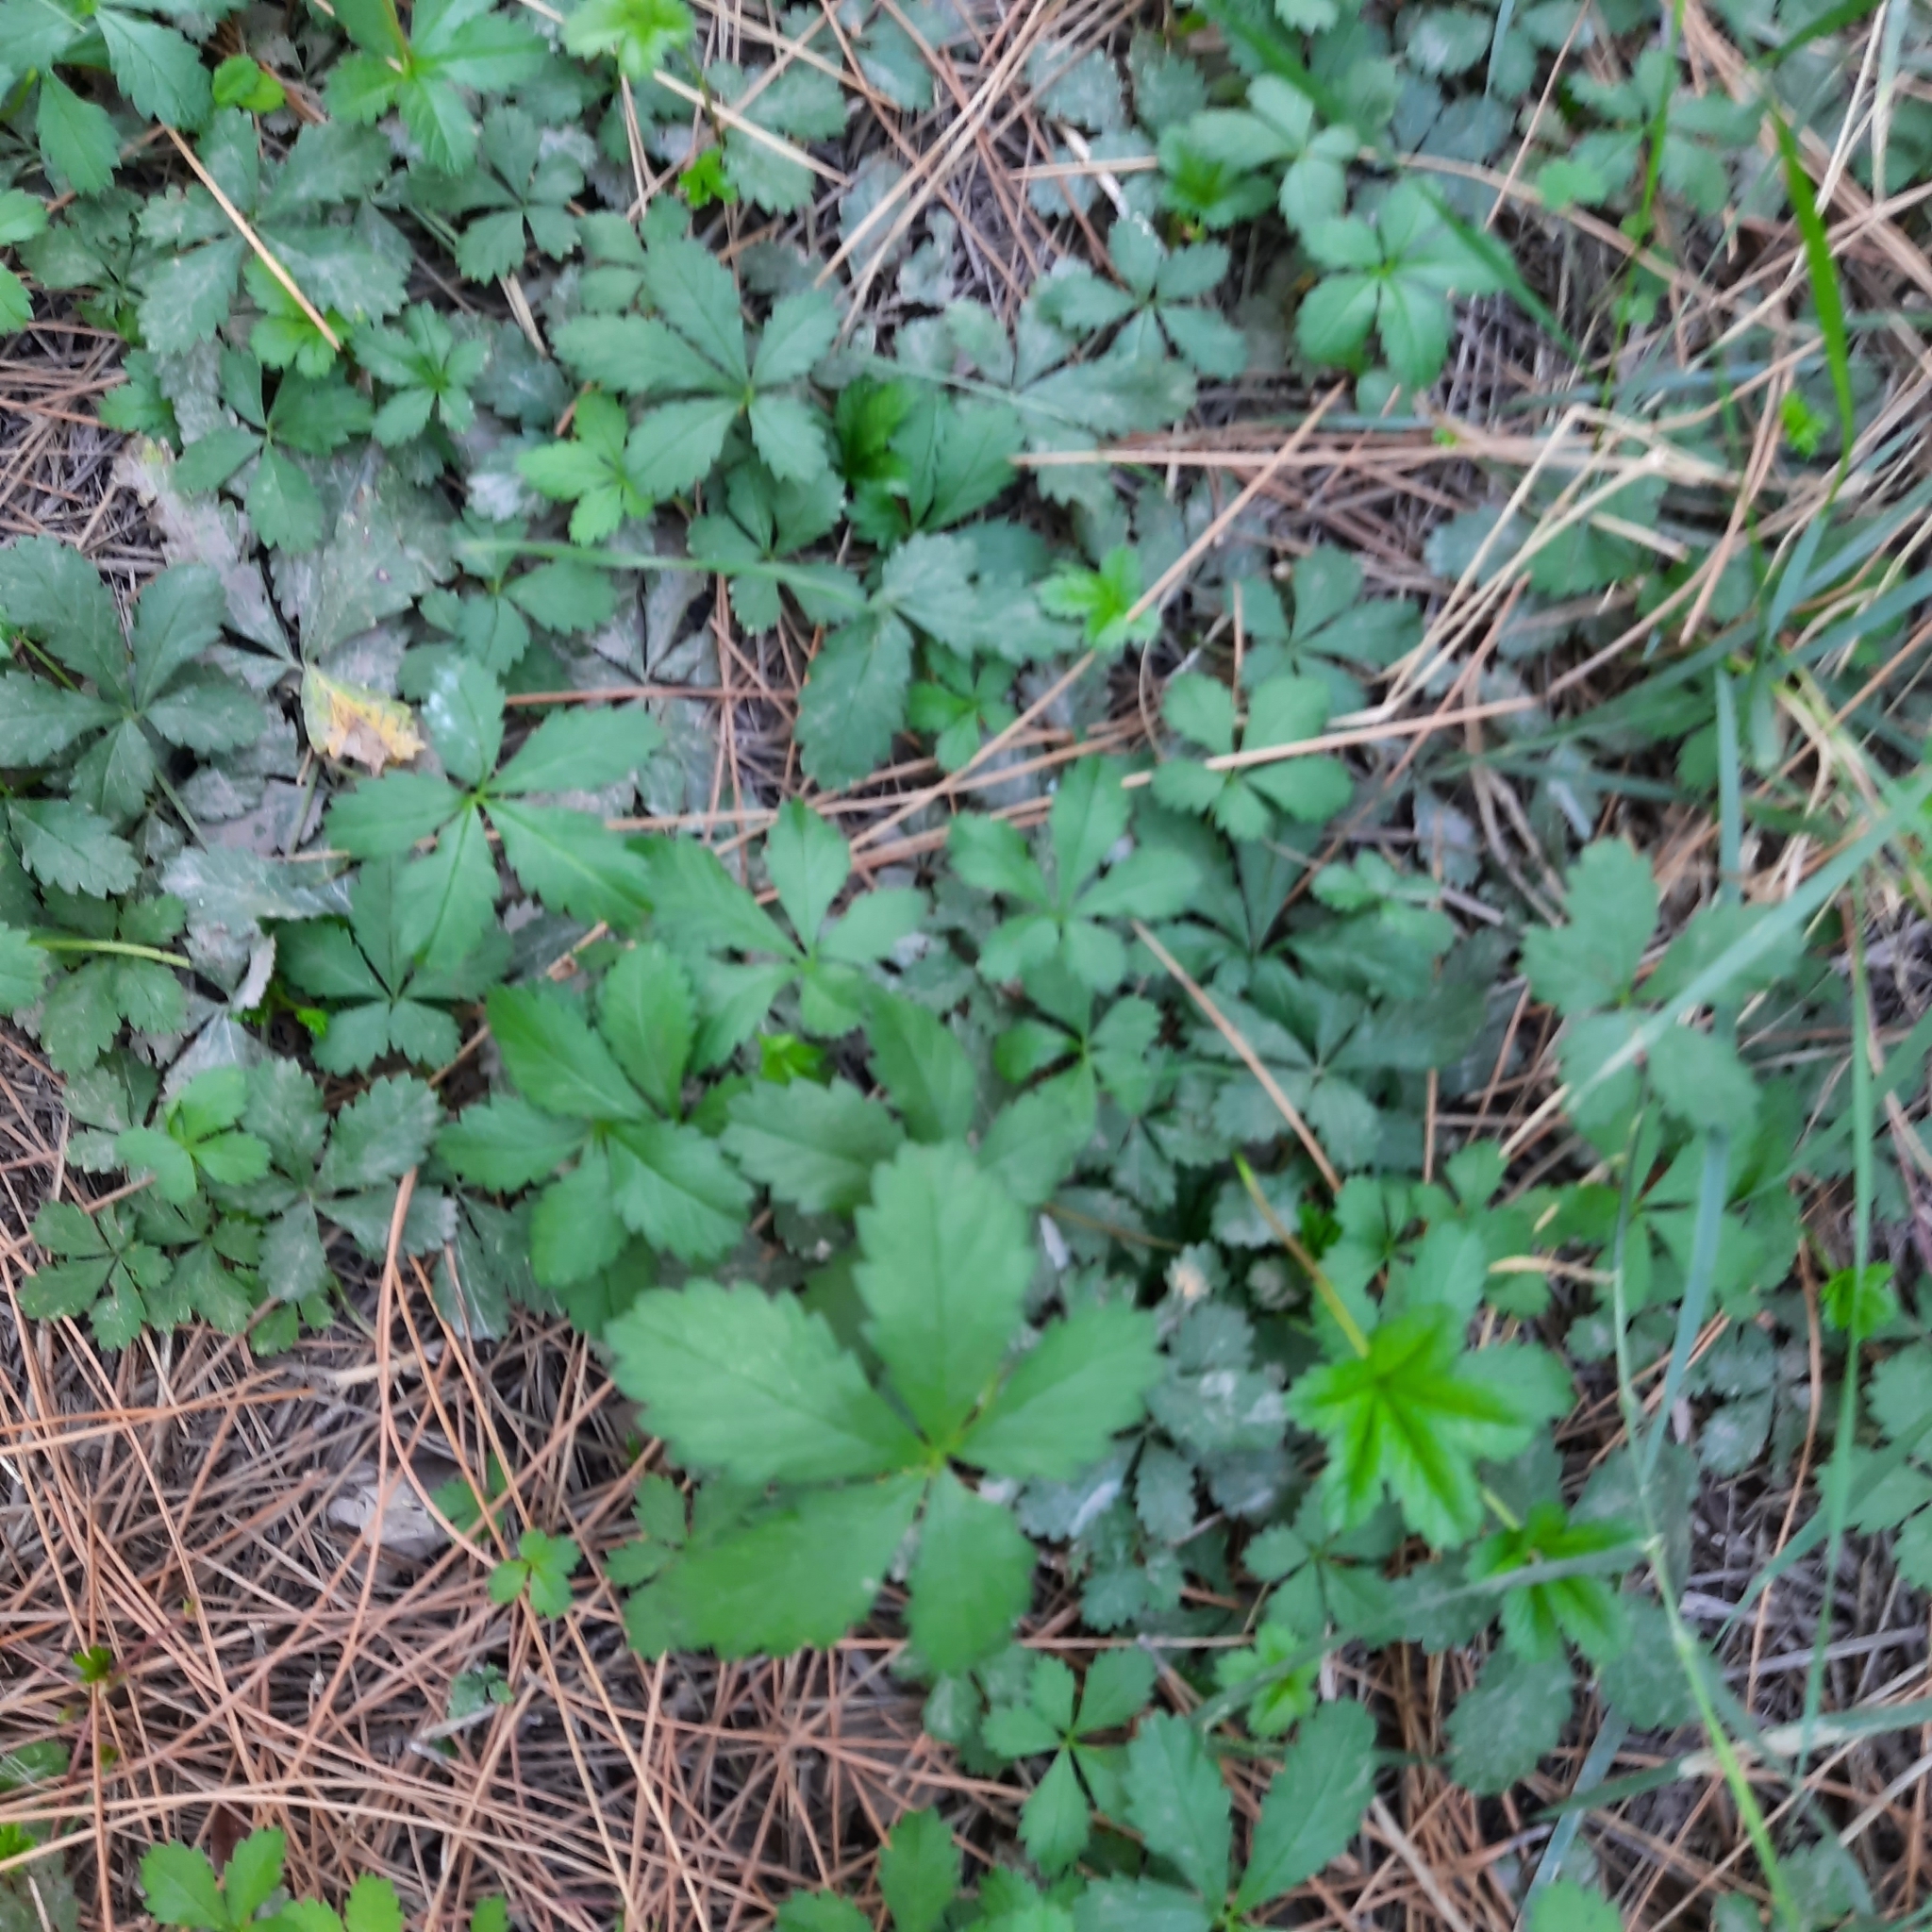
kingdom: Plantae
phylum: Tracheophyta
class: Magnoliopsida
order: Rosales
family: Rosaceae
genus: Potentilla
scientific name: Potentilla reptans
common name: Creeping cinquefoil
